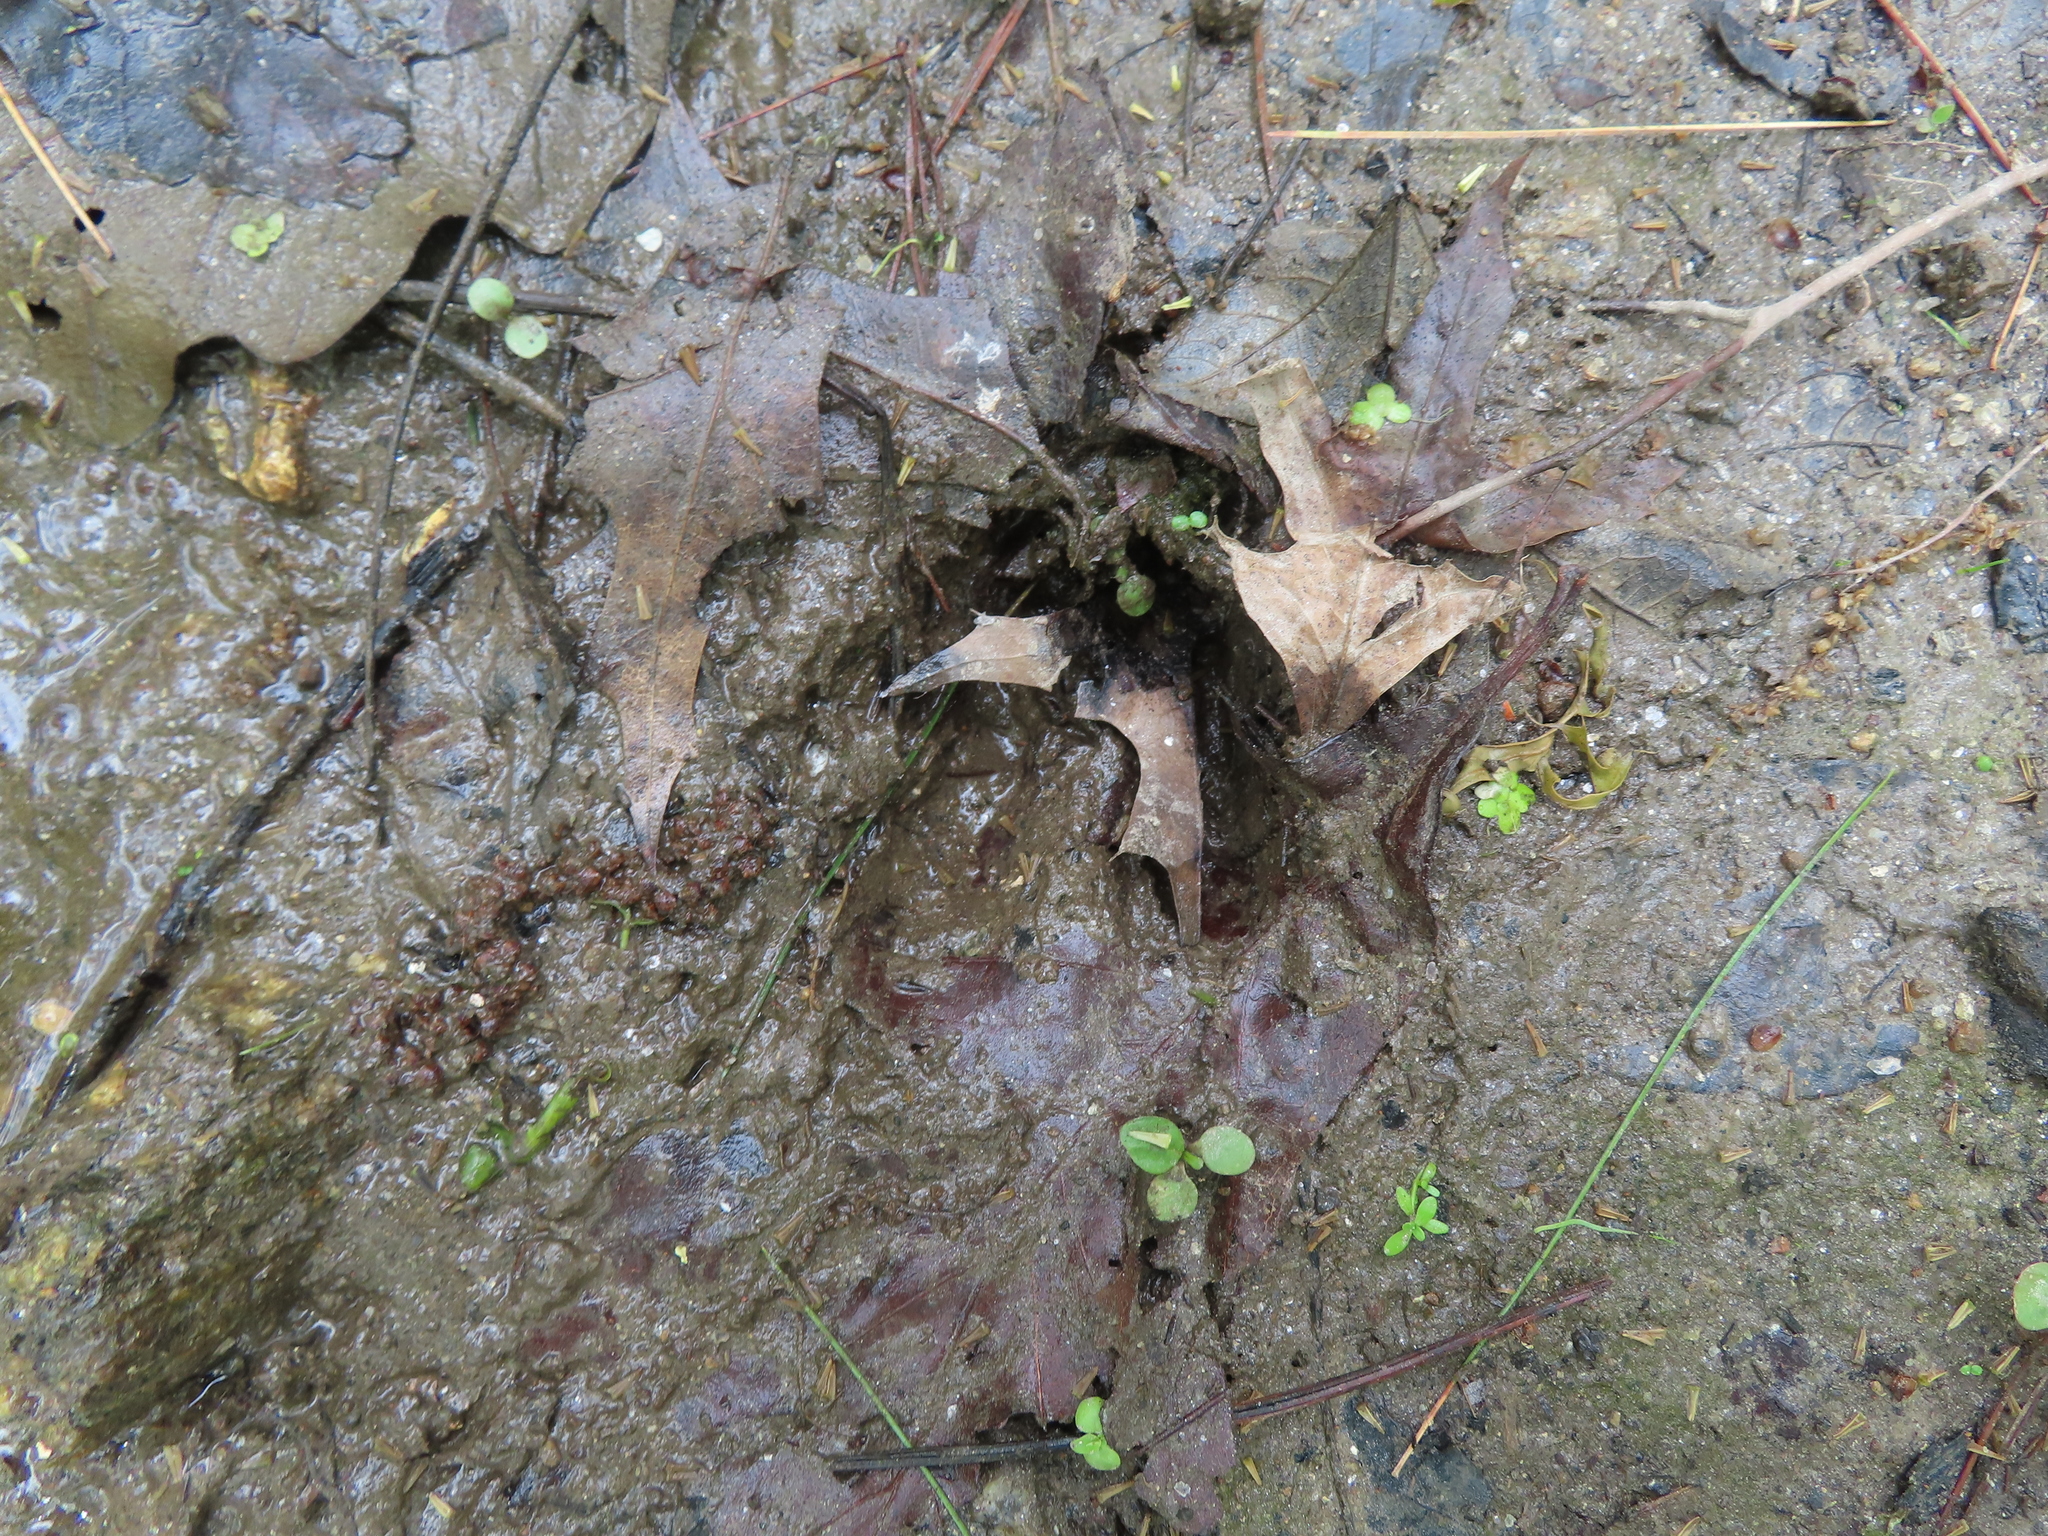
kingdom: Animalia
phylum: Chordata
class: Mammalia
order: Artiodactyla
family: Cervidae
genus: Odocoileus
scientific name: Odocoileus virginianus
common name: White-tailed deer
